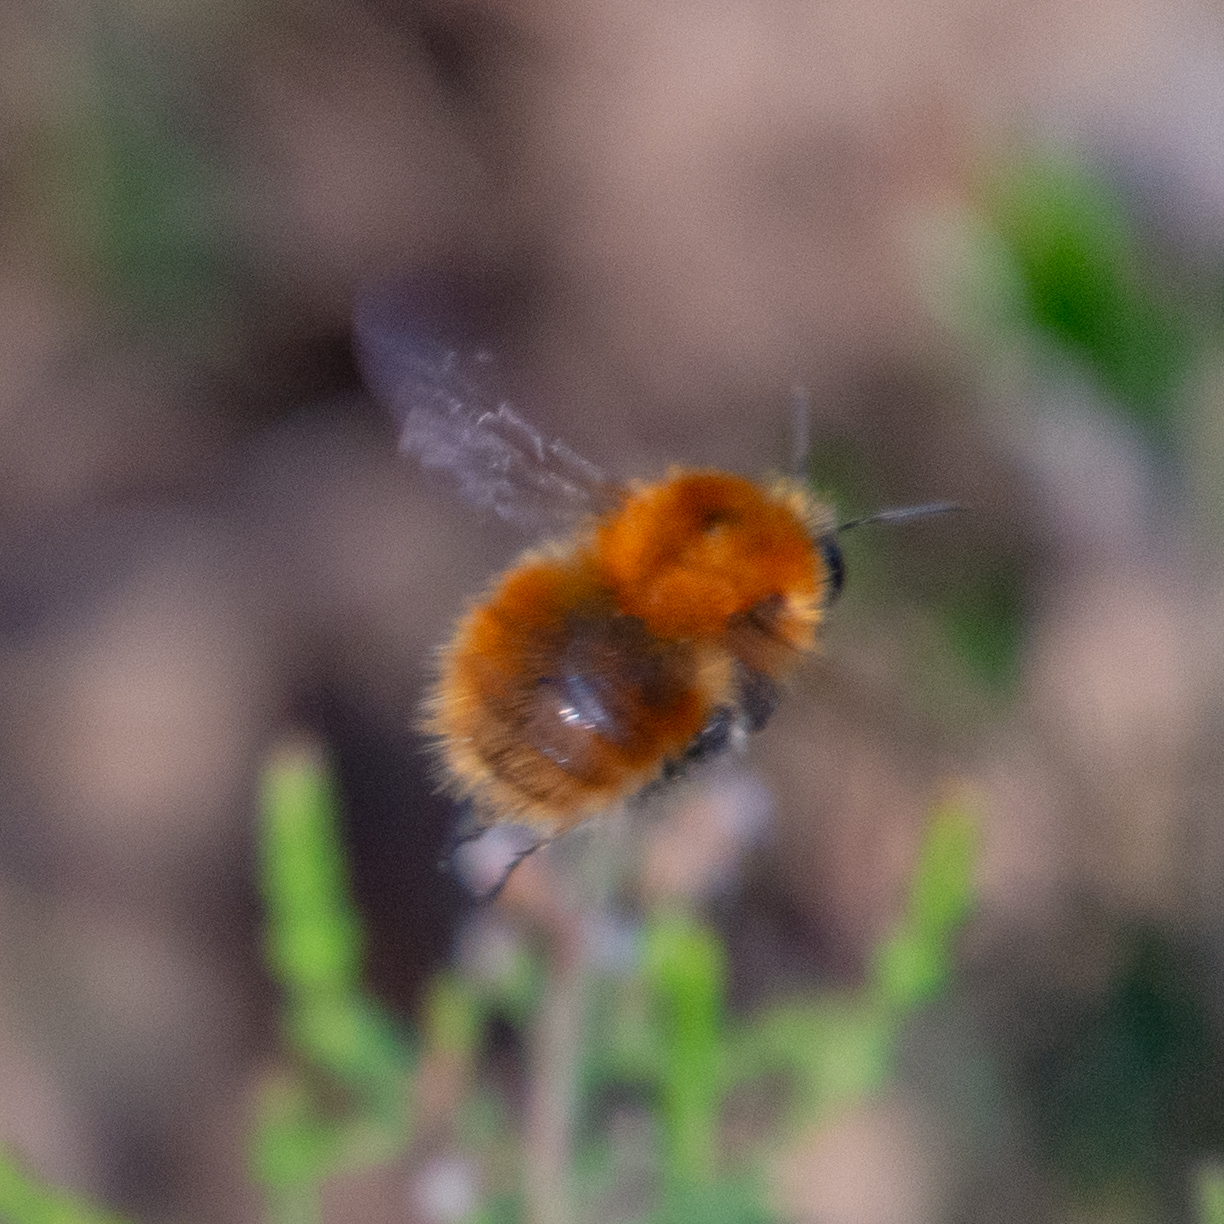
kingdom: Animalia
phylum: Arthropoda
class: Insecta
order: Hymenoptera
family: Apidae
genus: Bombus
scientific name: Bombus pascuorum
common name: Common carder bee
